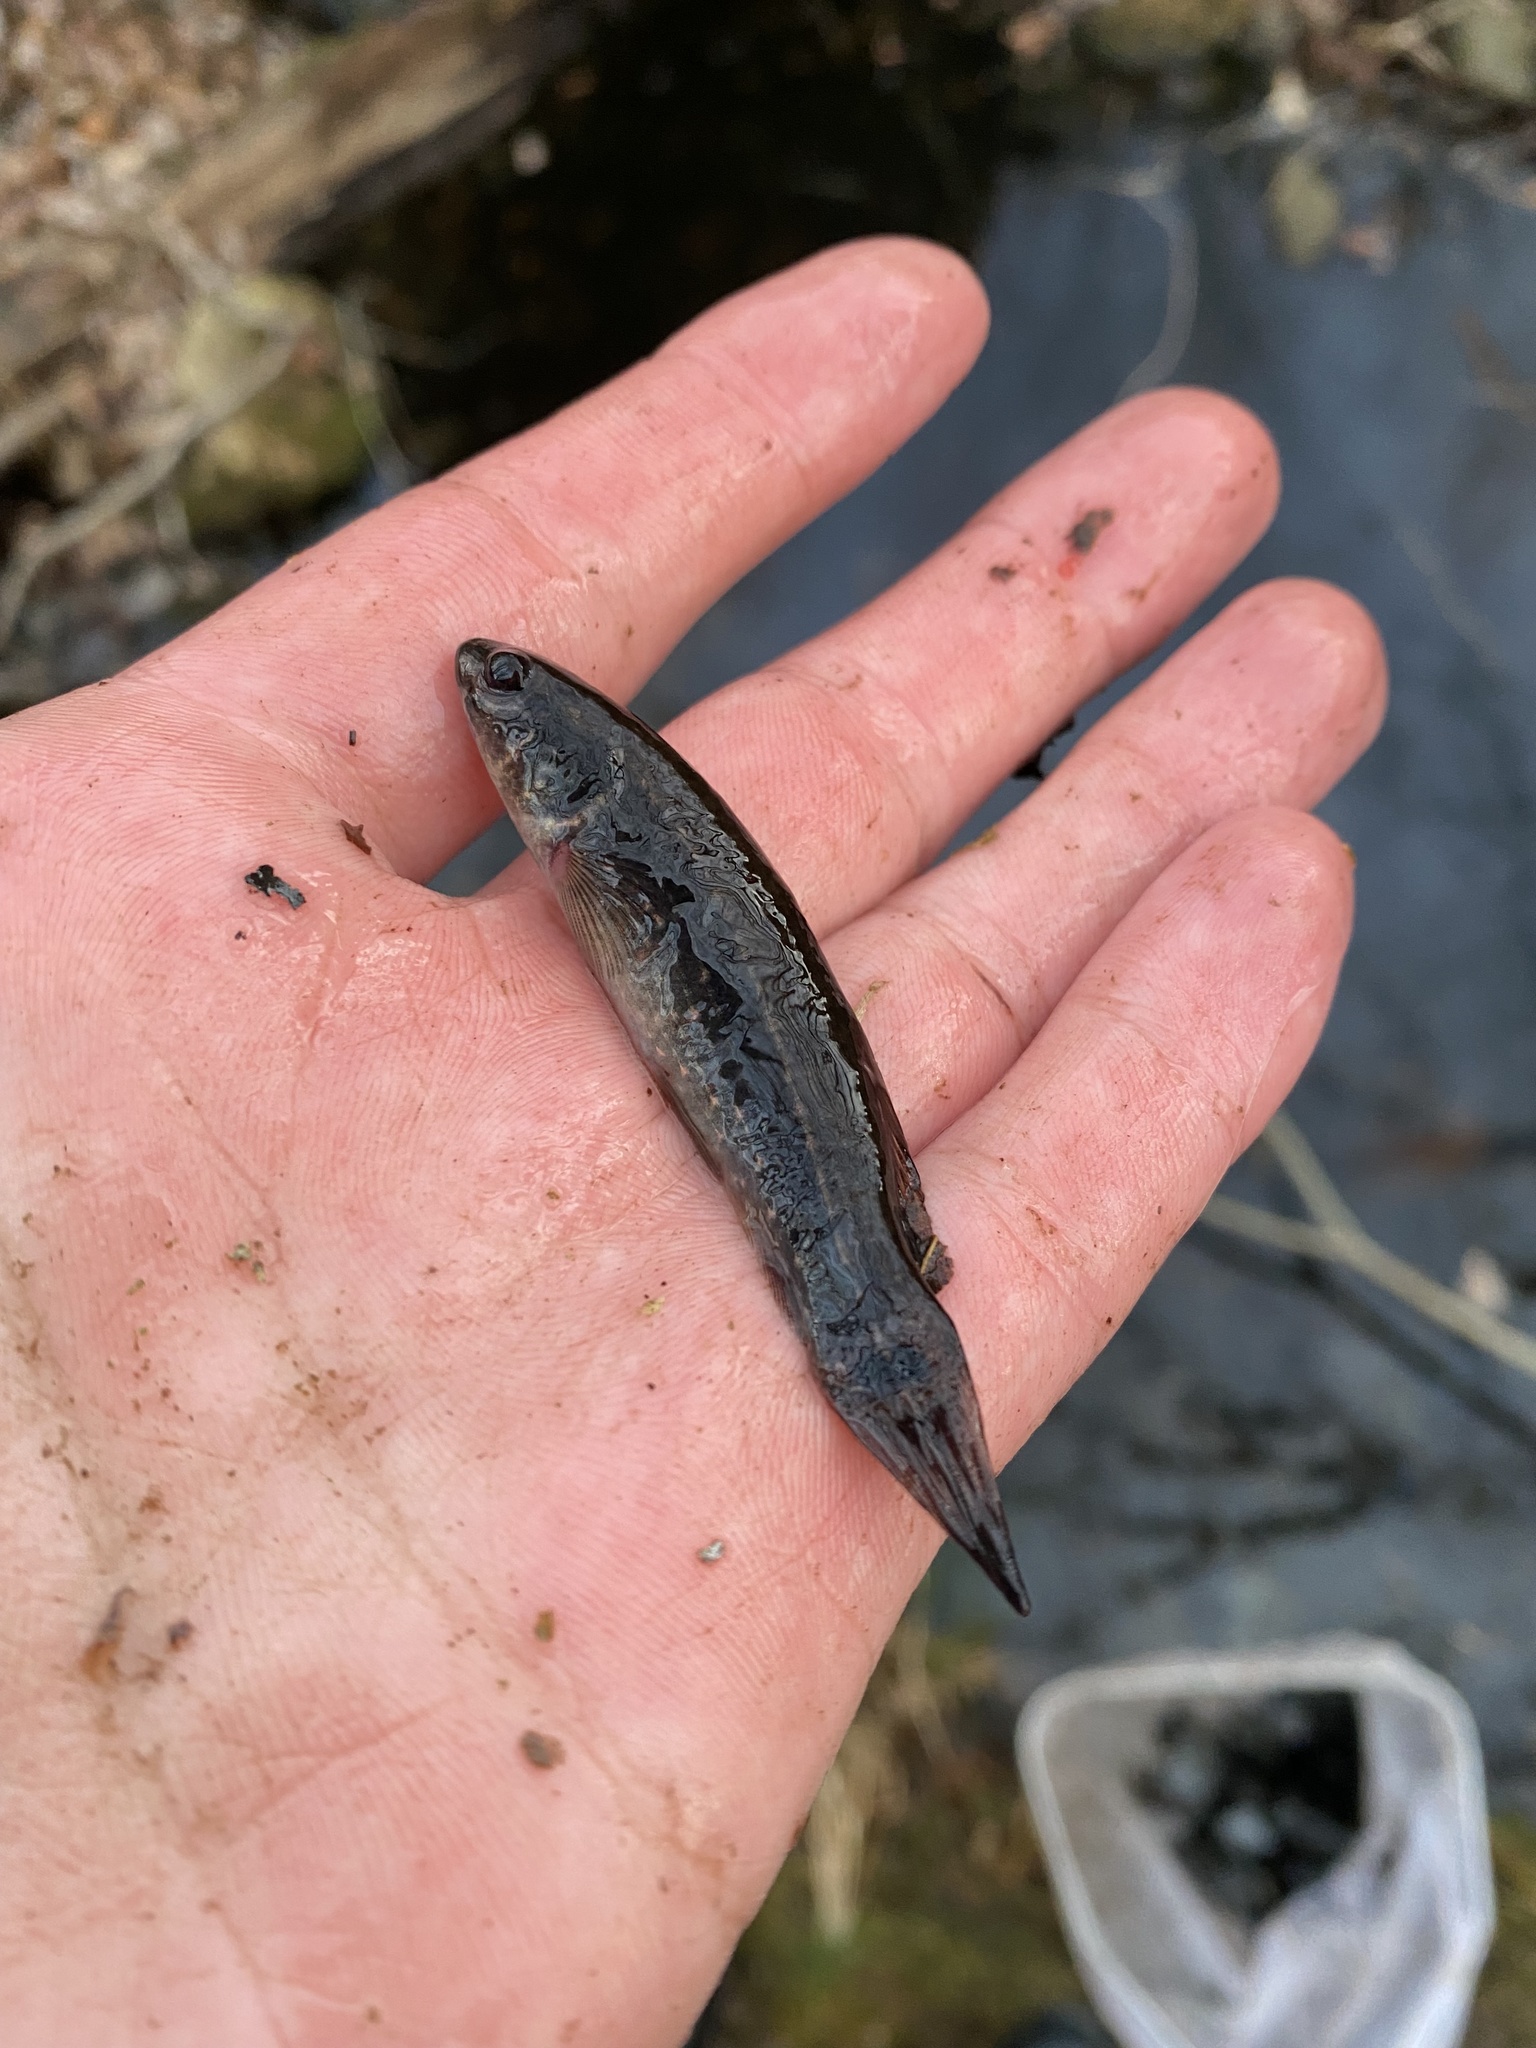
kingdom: Animalia
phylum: Chordata
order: Esociformes
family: Umbridae
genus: Umbra
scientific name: Umbra pygmaea
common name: Eastern mudminnow
